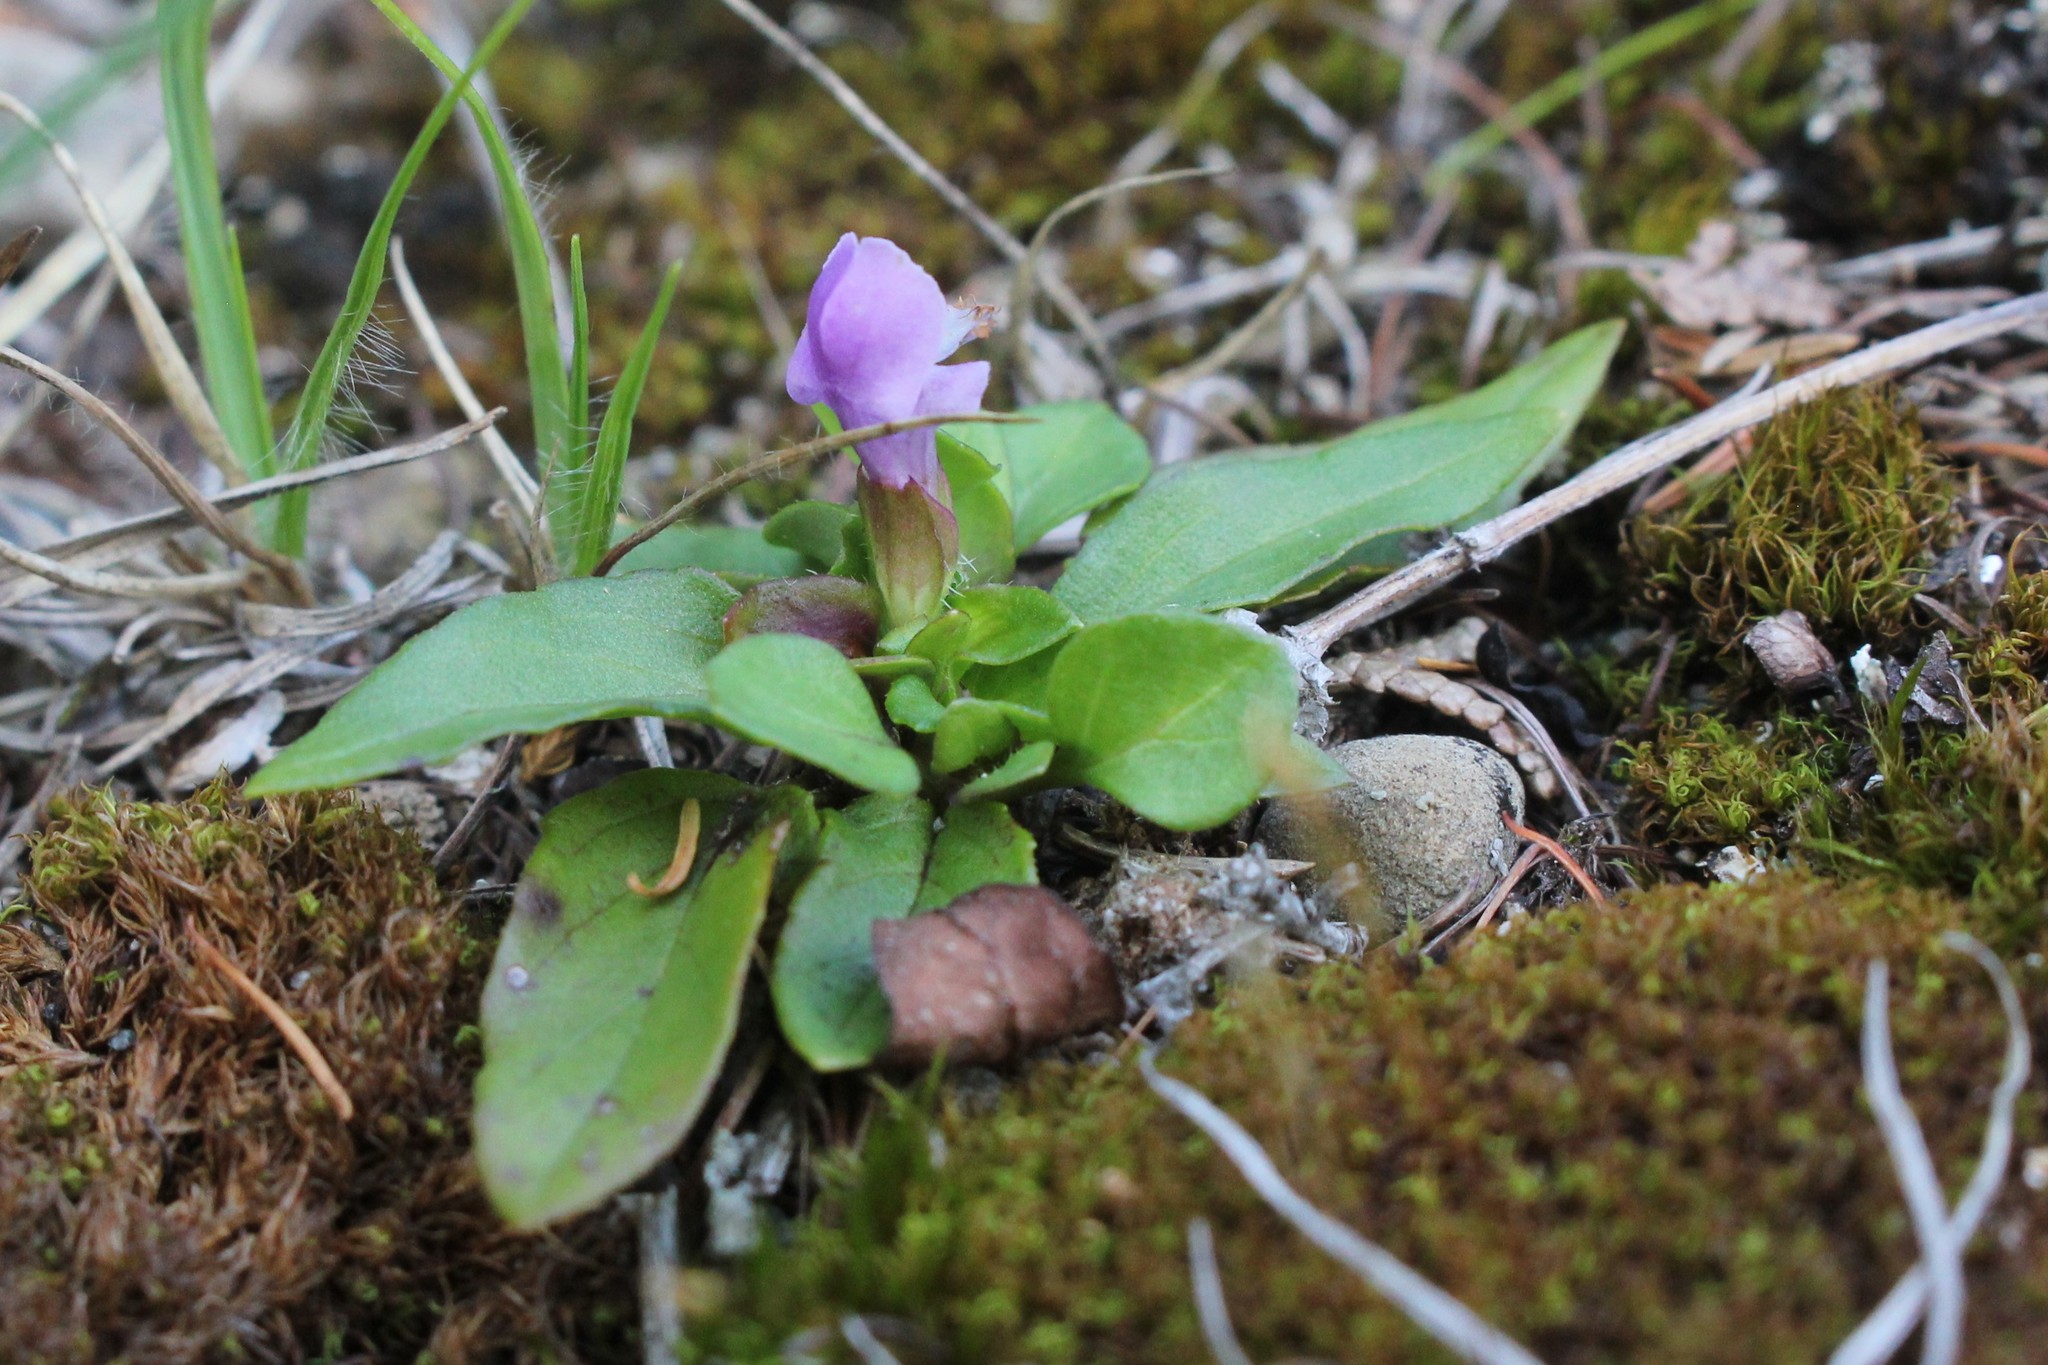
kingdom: Plantae
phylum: Tracheophyta
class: Magnoliopsida
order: Lamiales
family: Lamiaceae
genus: Prunella
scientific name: Prunella vulgaris
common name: Heal-all
